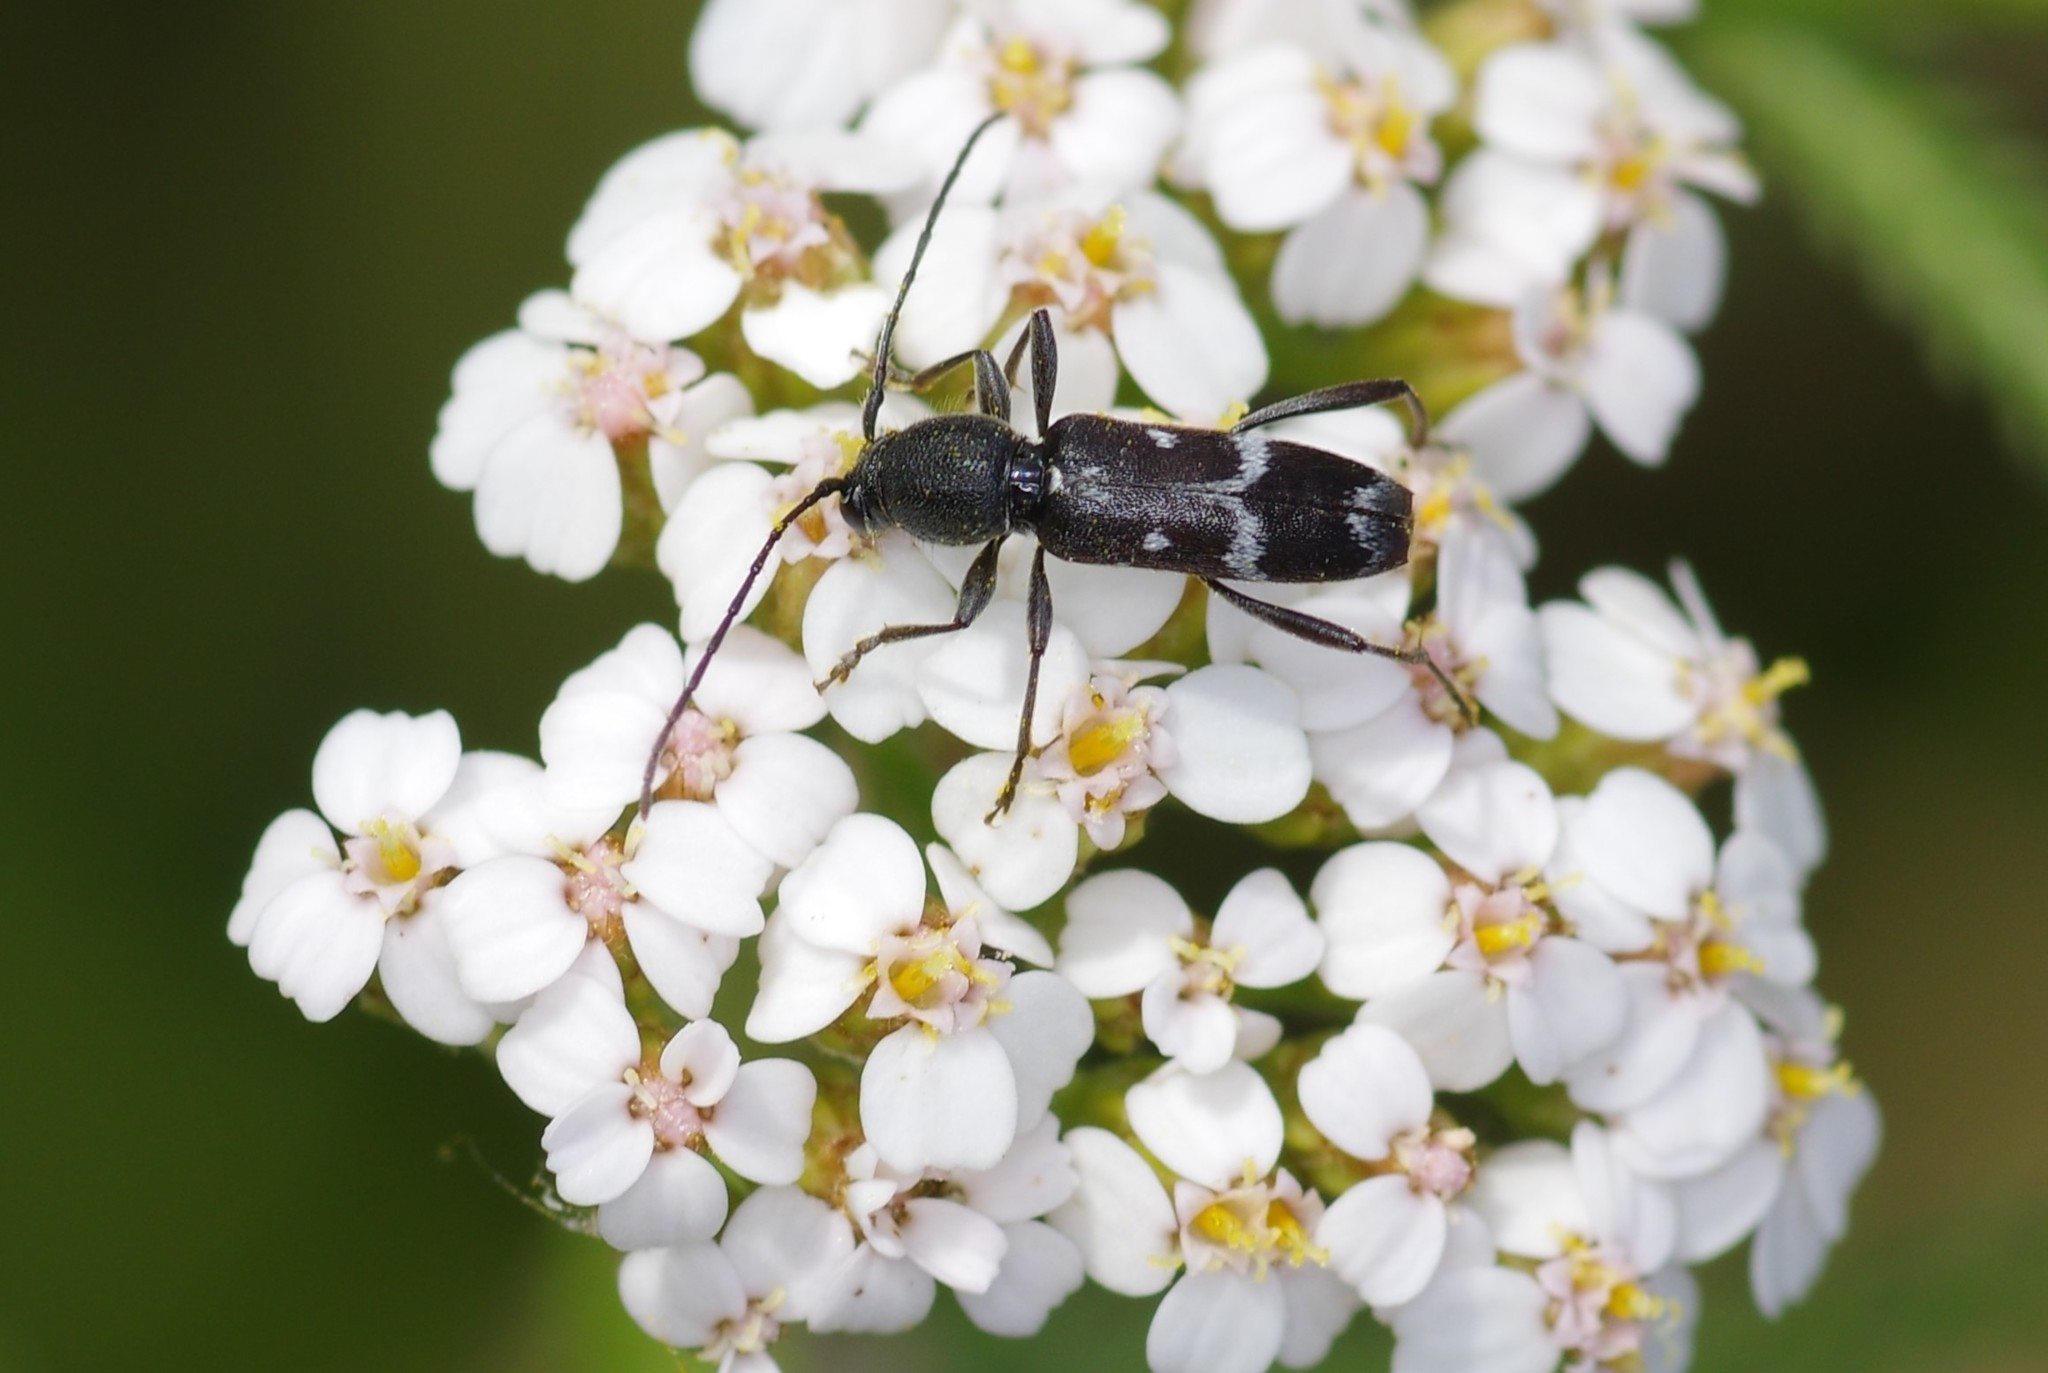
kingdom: Animalia
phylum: Arthropoda
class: Insecta
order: Coleoptera
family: Cerambycidae
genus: Chlorophorus
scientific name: Chlorophorus sartor
